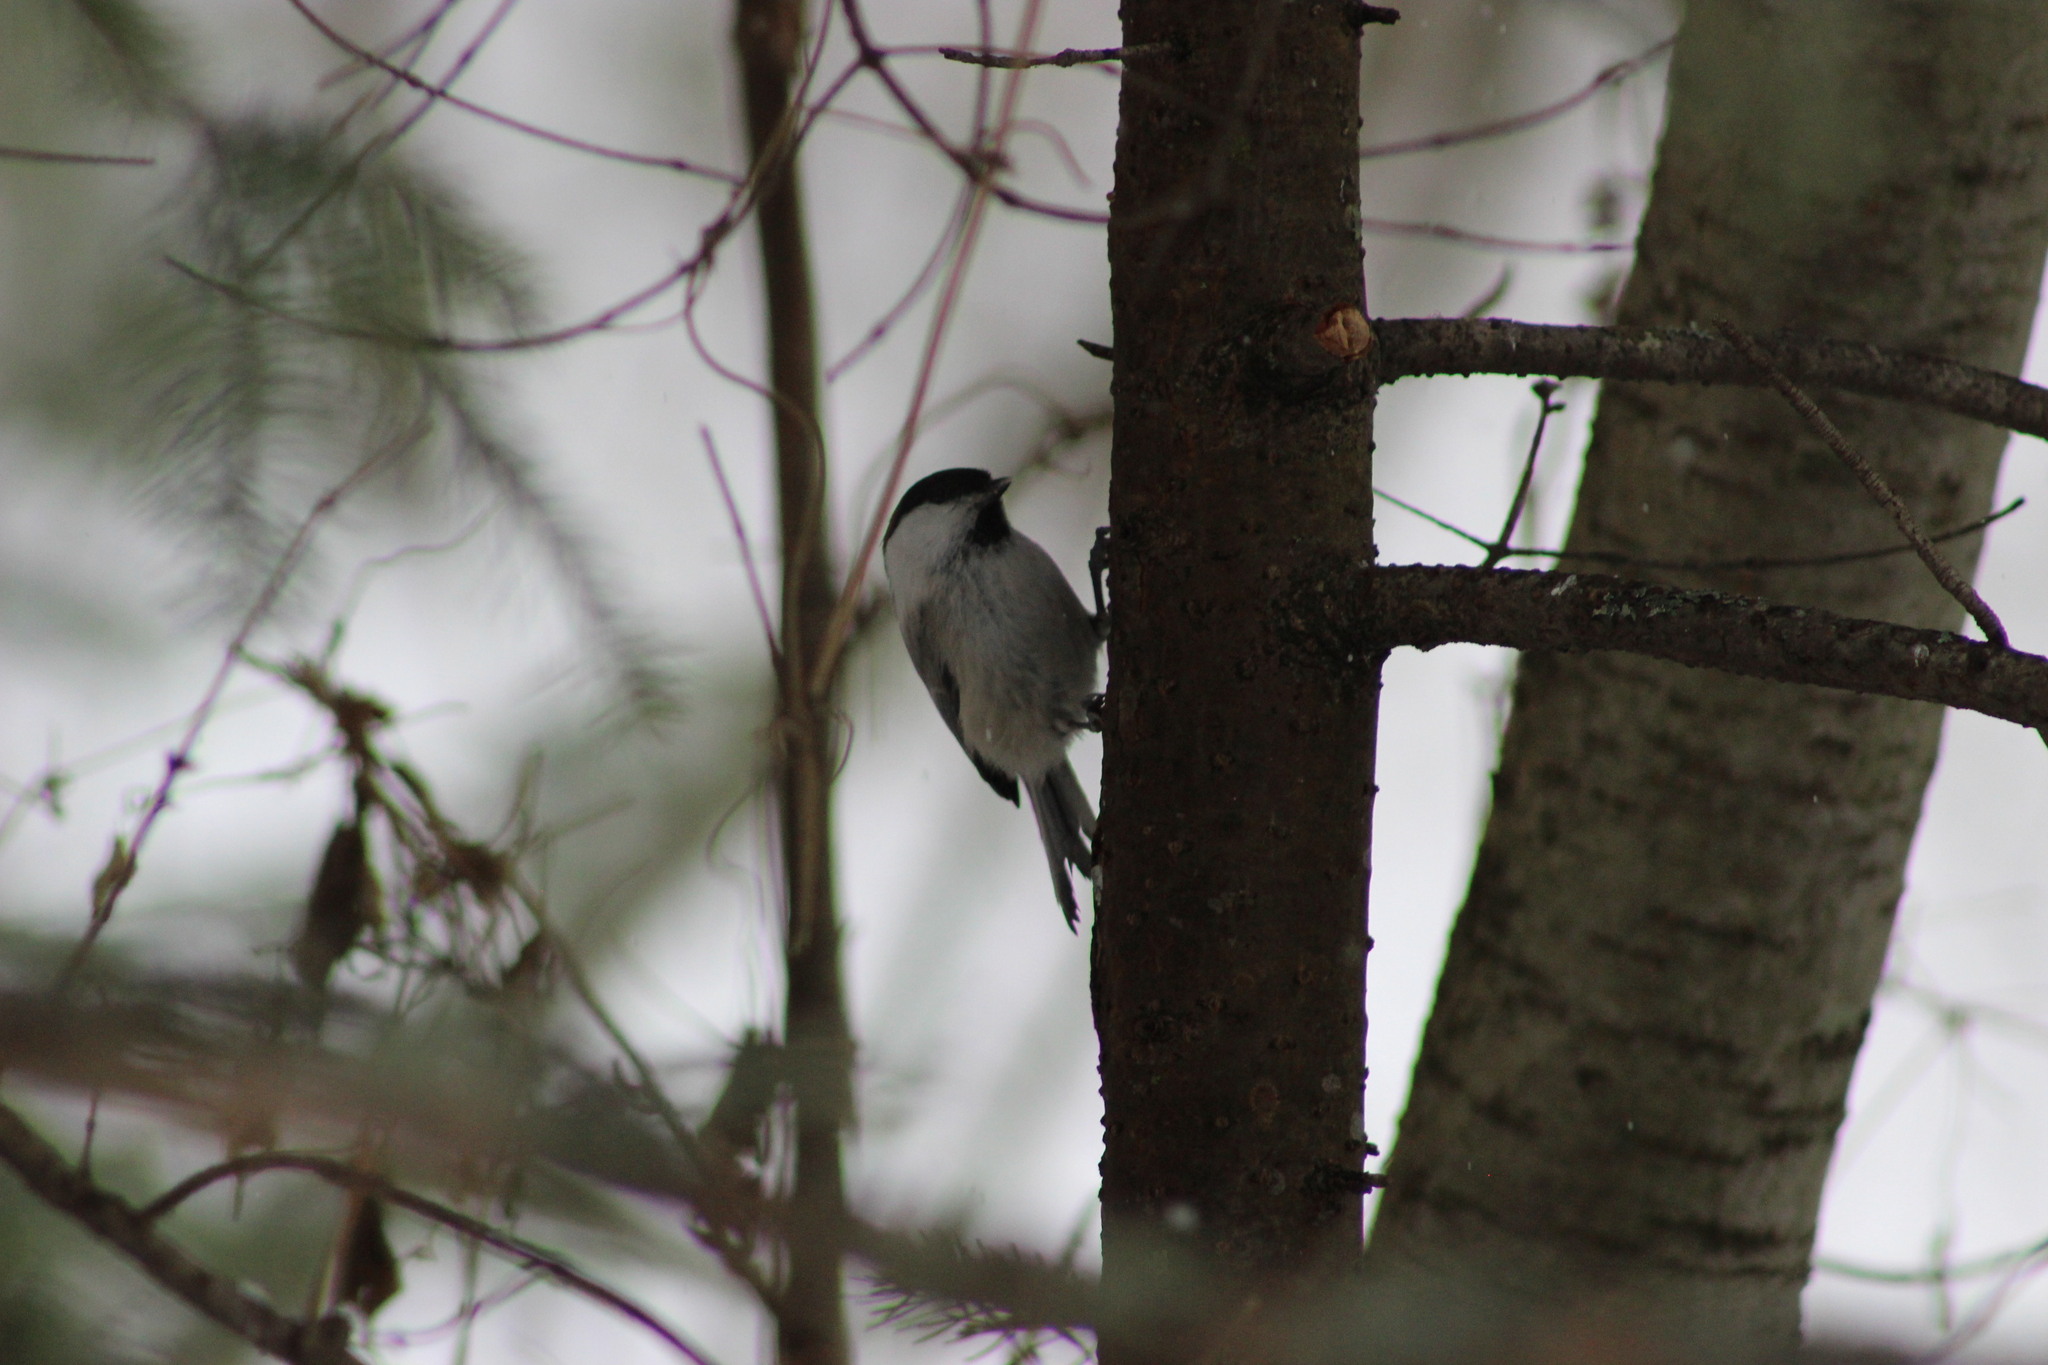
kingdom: Animalia
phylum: Chordata
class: Aves
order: Passeriformes
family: Paridae
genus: Poecile
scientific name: Poecile montanus
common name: Willow tit
